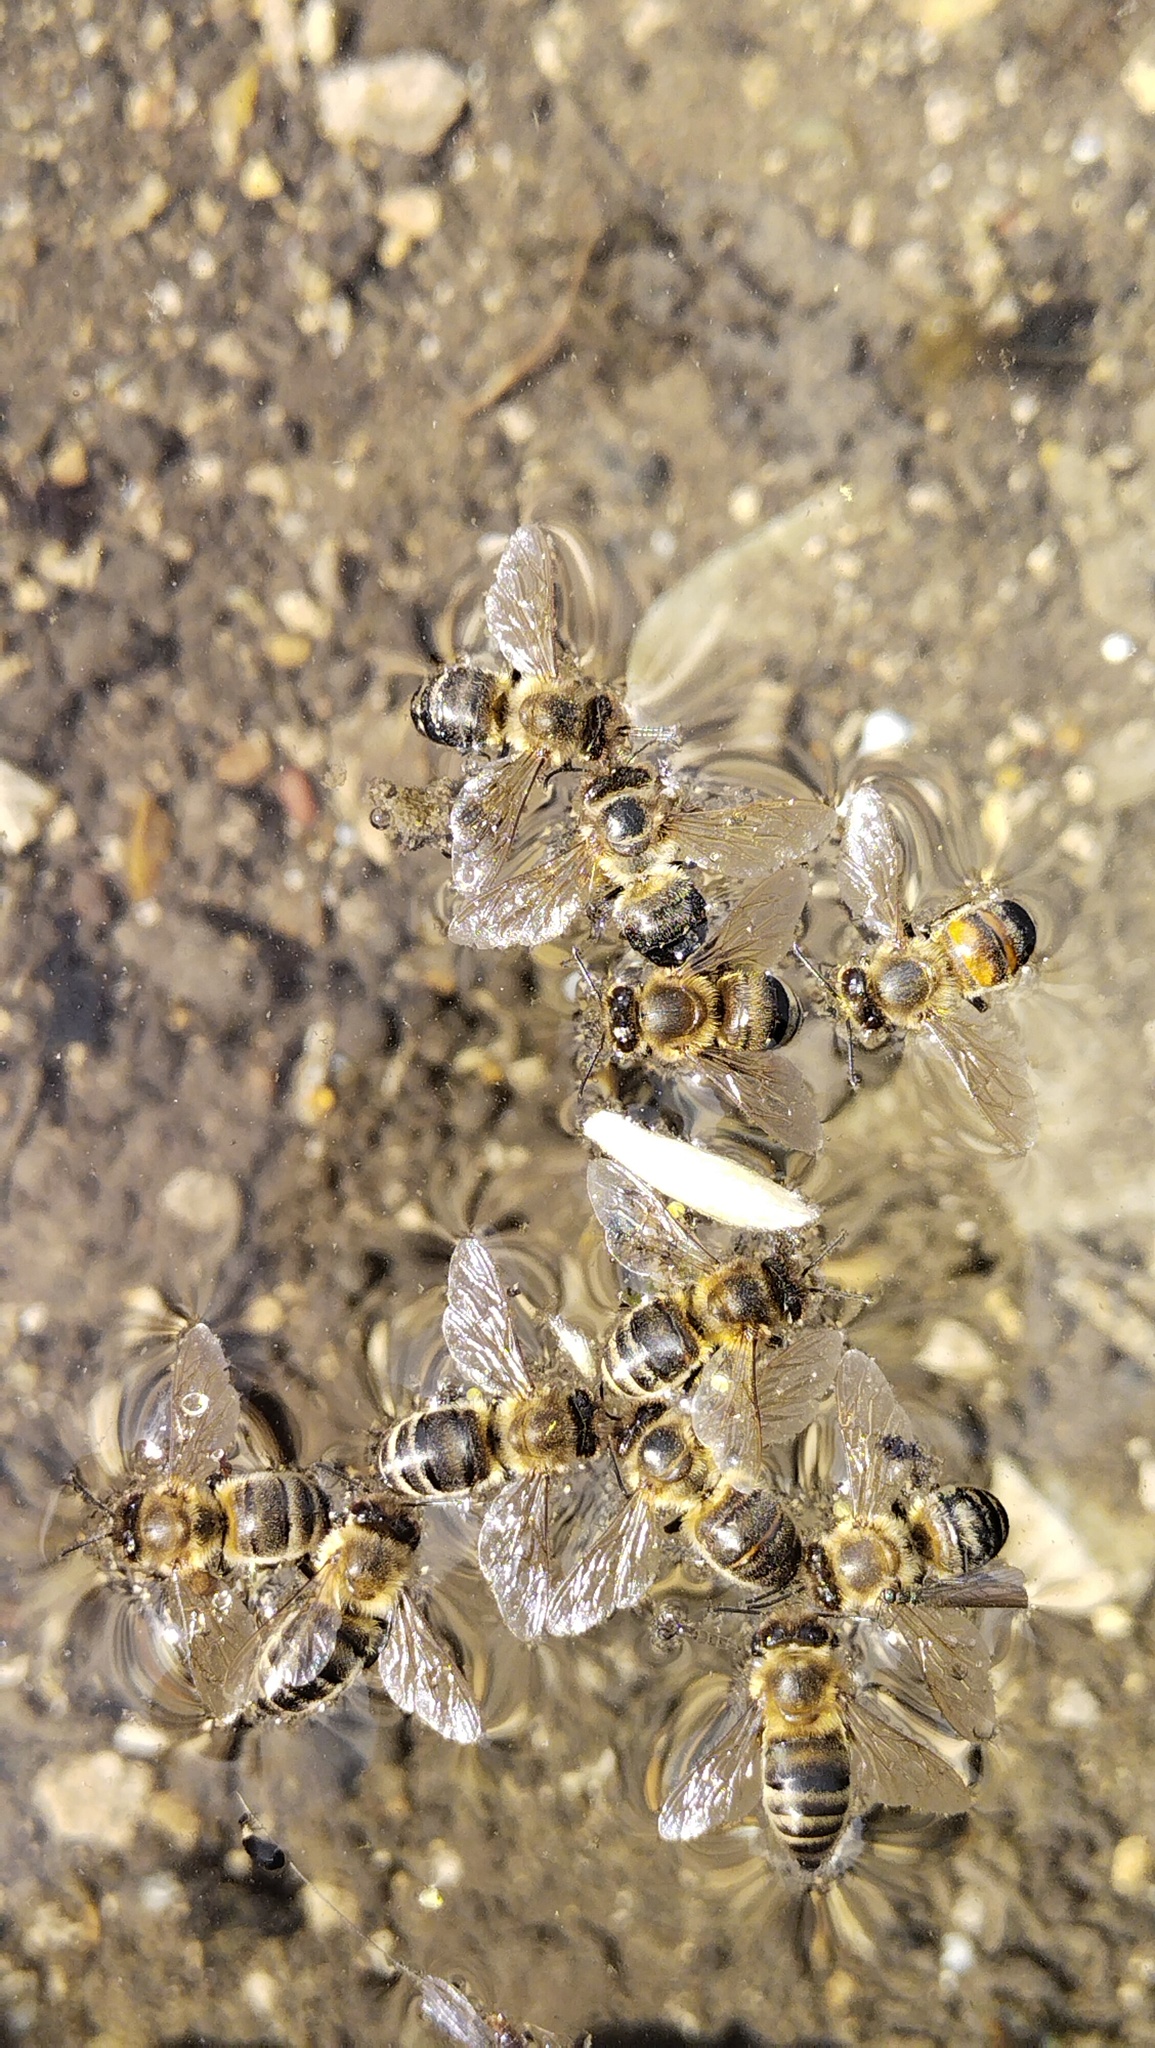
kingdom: Animalia
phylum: Arthropoda
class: Insecta
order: Hymenoptera
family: Apidae
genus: Apis
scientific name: Apis mellifera
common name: Honey bee
